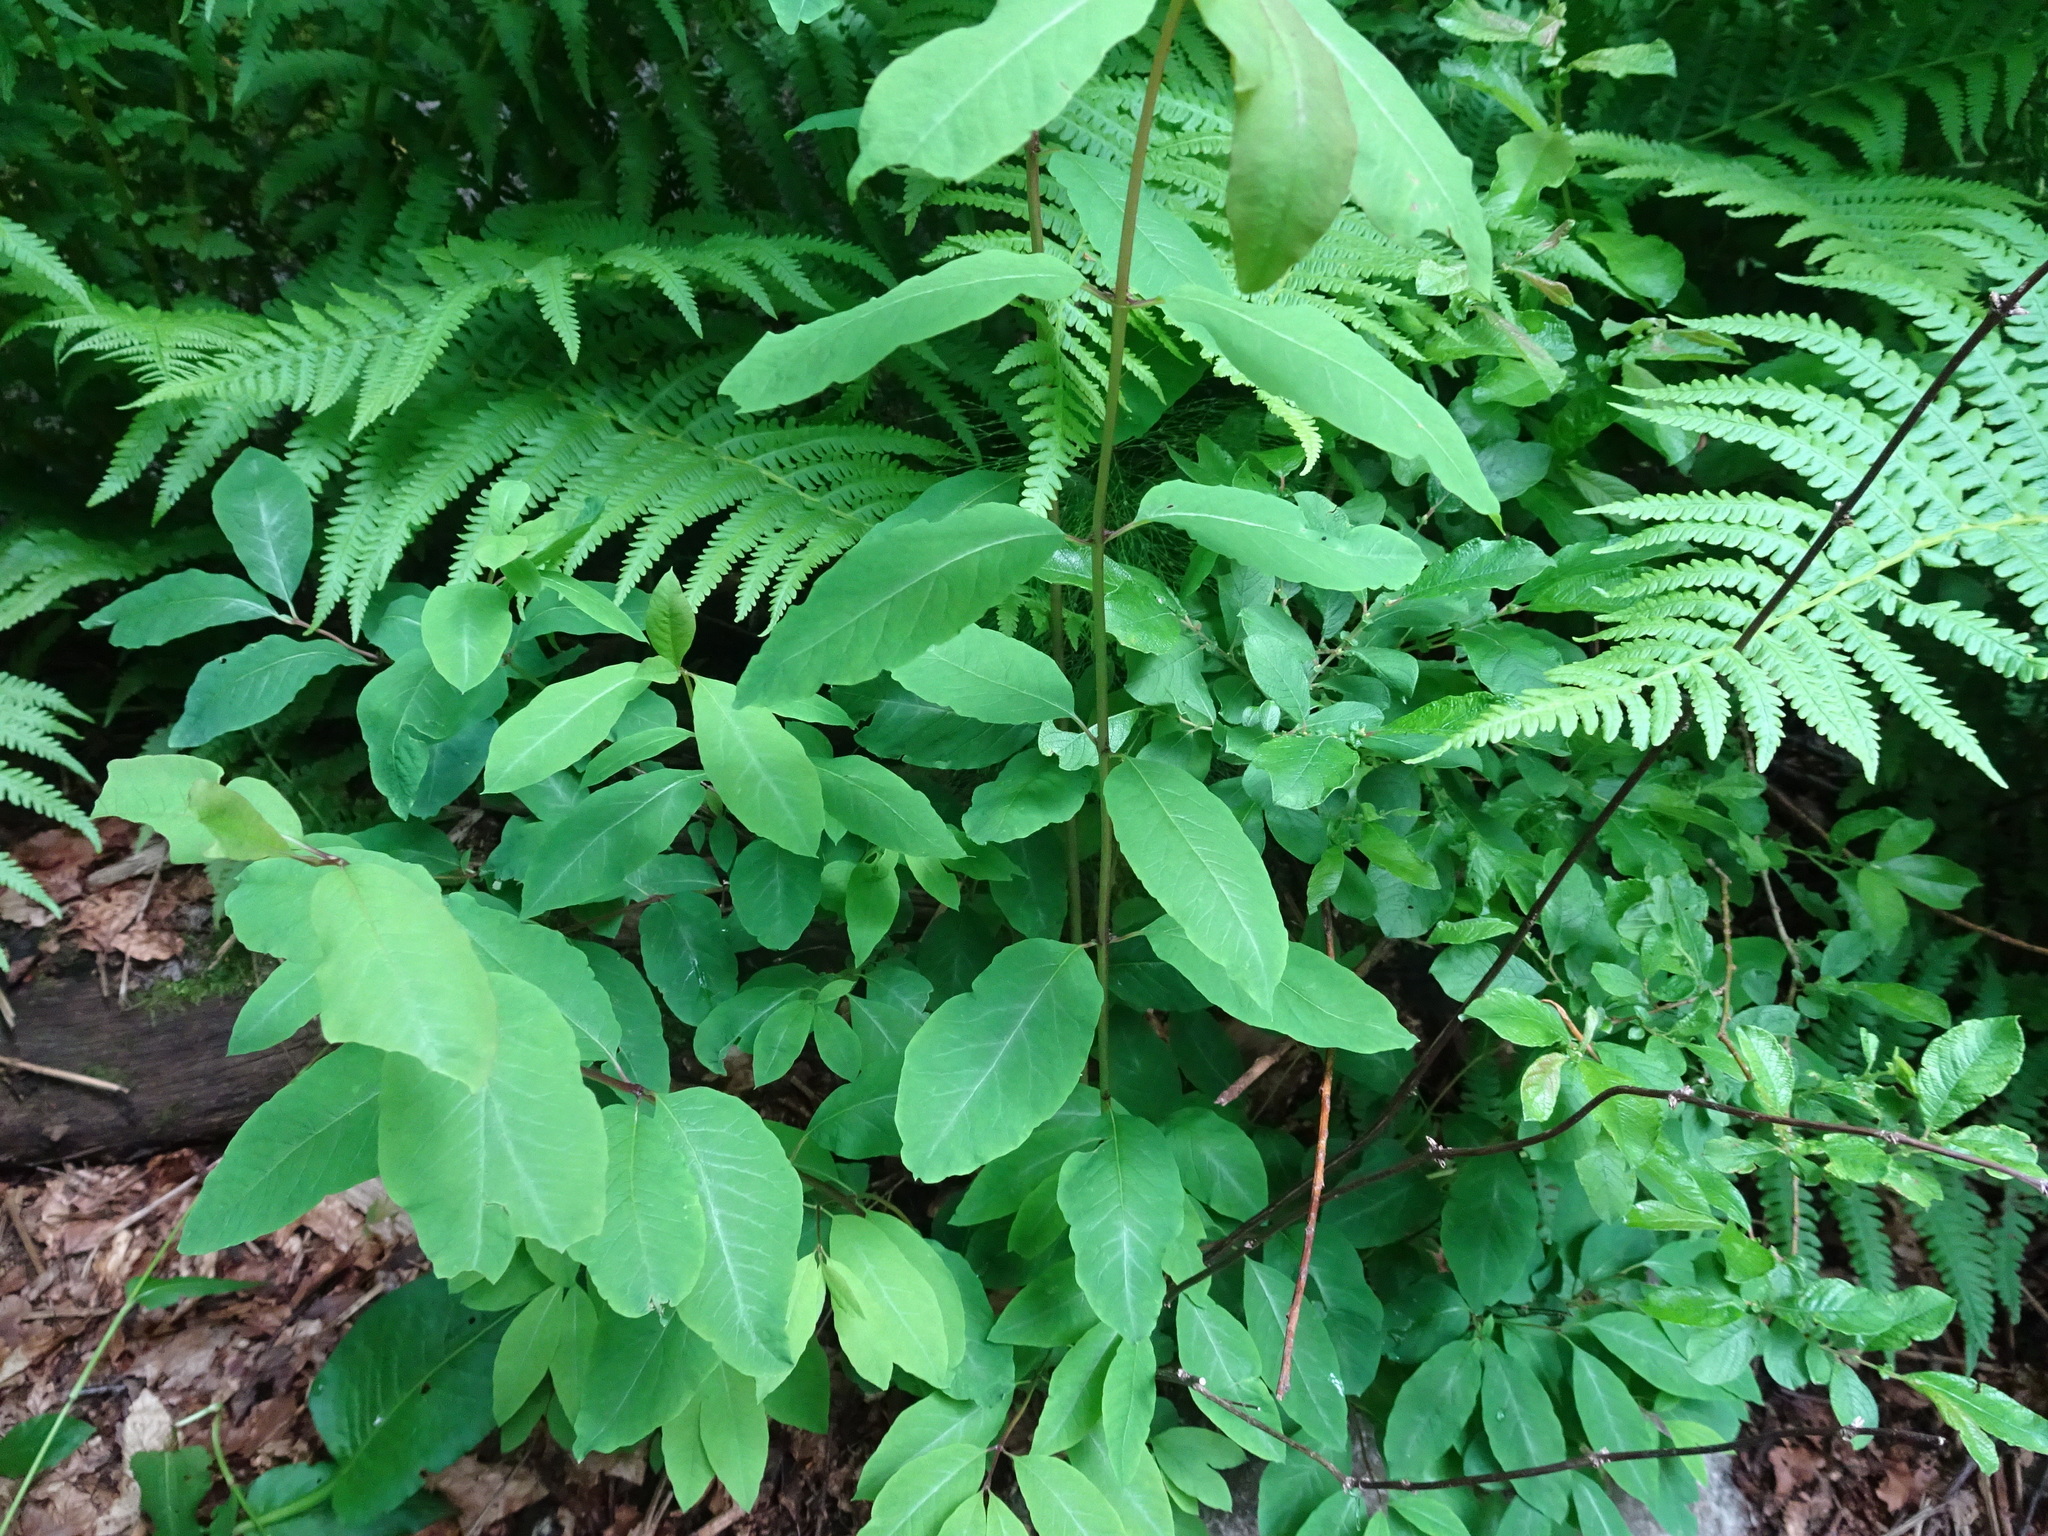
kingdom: Plantae
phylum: Tracheophyta
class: Magnoliopsida
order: Dipsacales
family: Caprifoliaceae
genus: Lonicera
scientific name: Lonicera nigra
